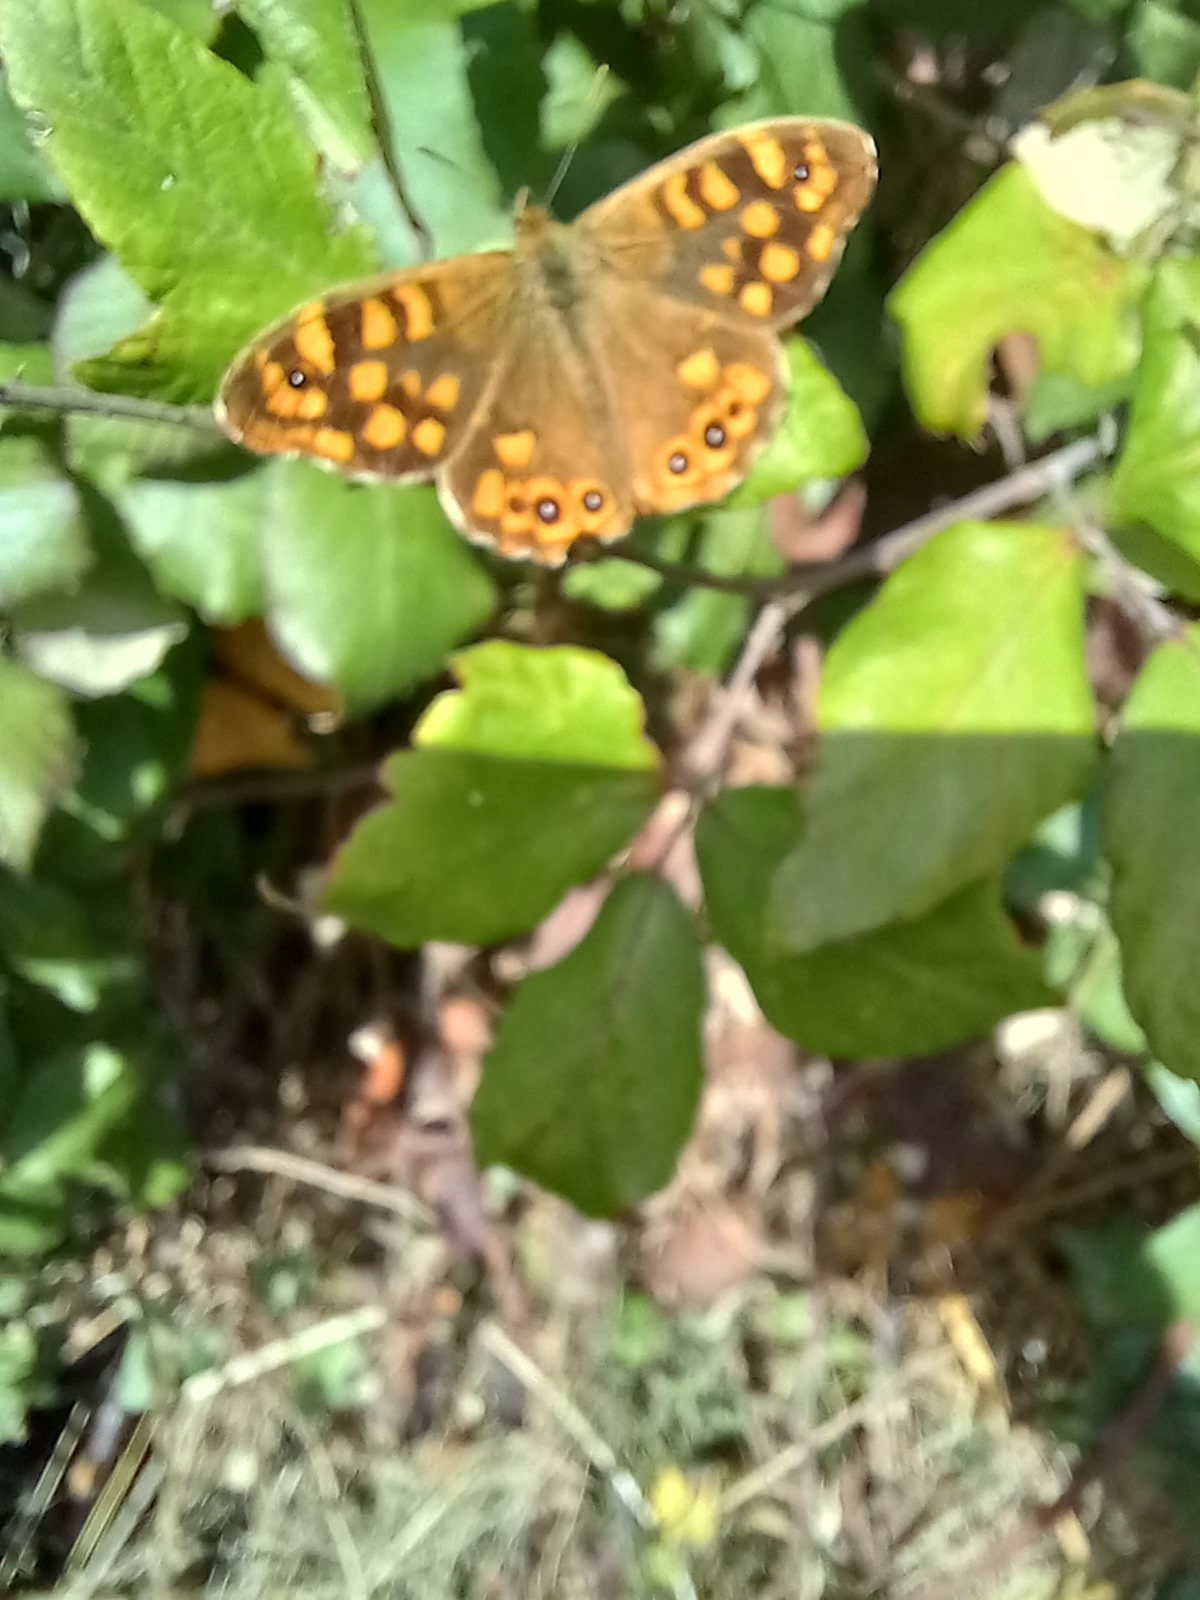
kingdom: Animalia
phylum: Arthropoda
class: Insecta
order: Lepidoptera
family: Nymphalidae
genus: Pararge
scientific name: Pararge aegeria
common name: Speckled wood
